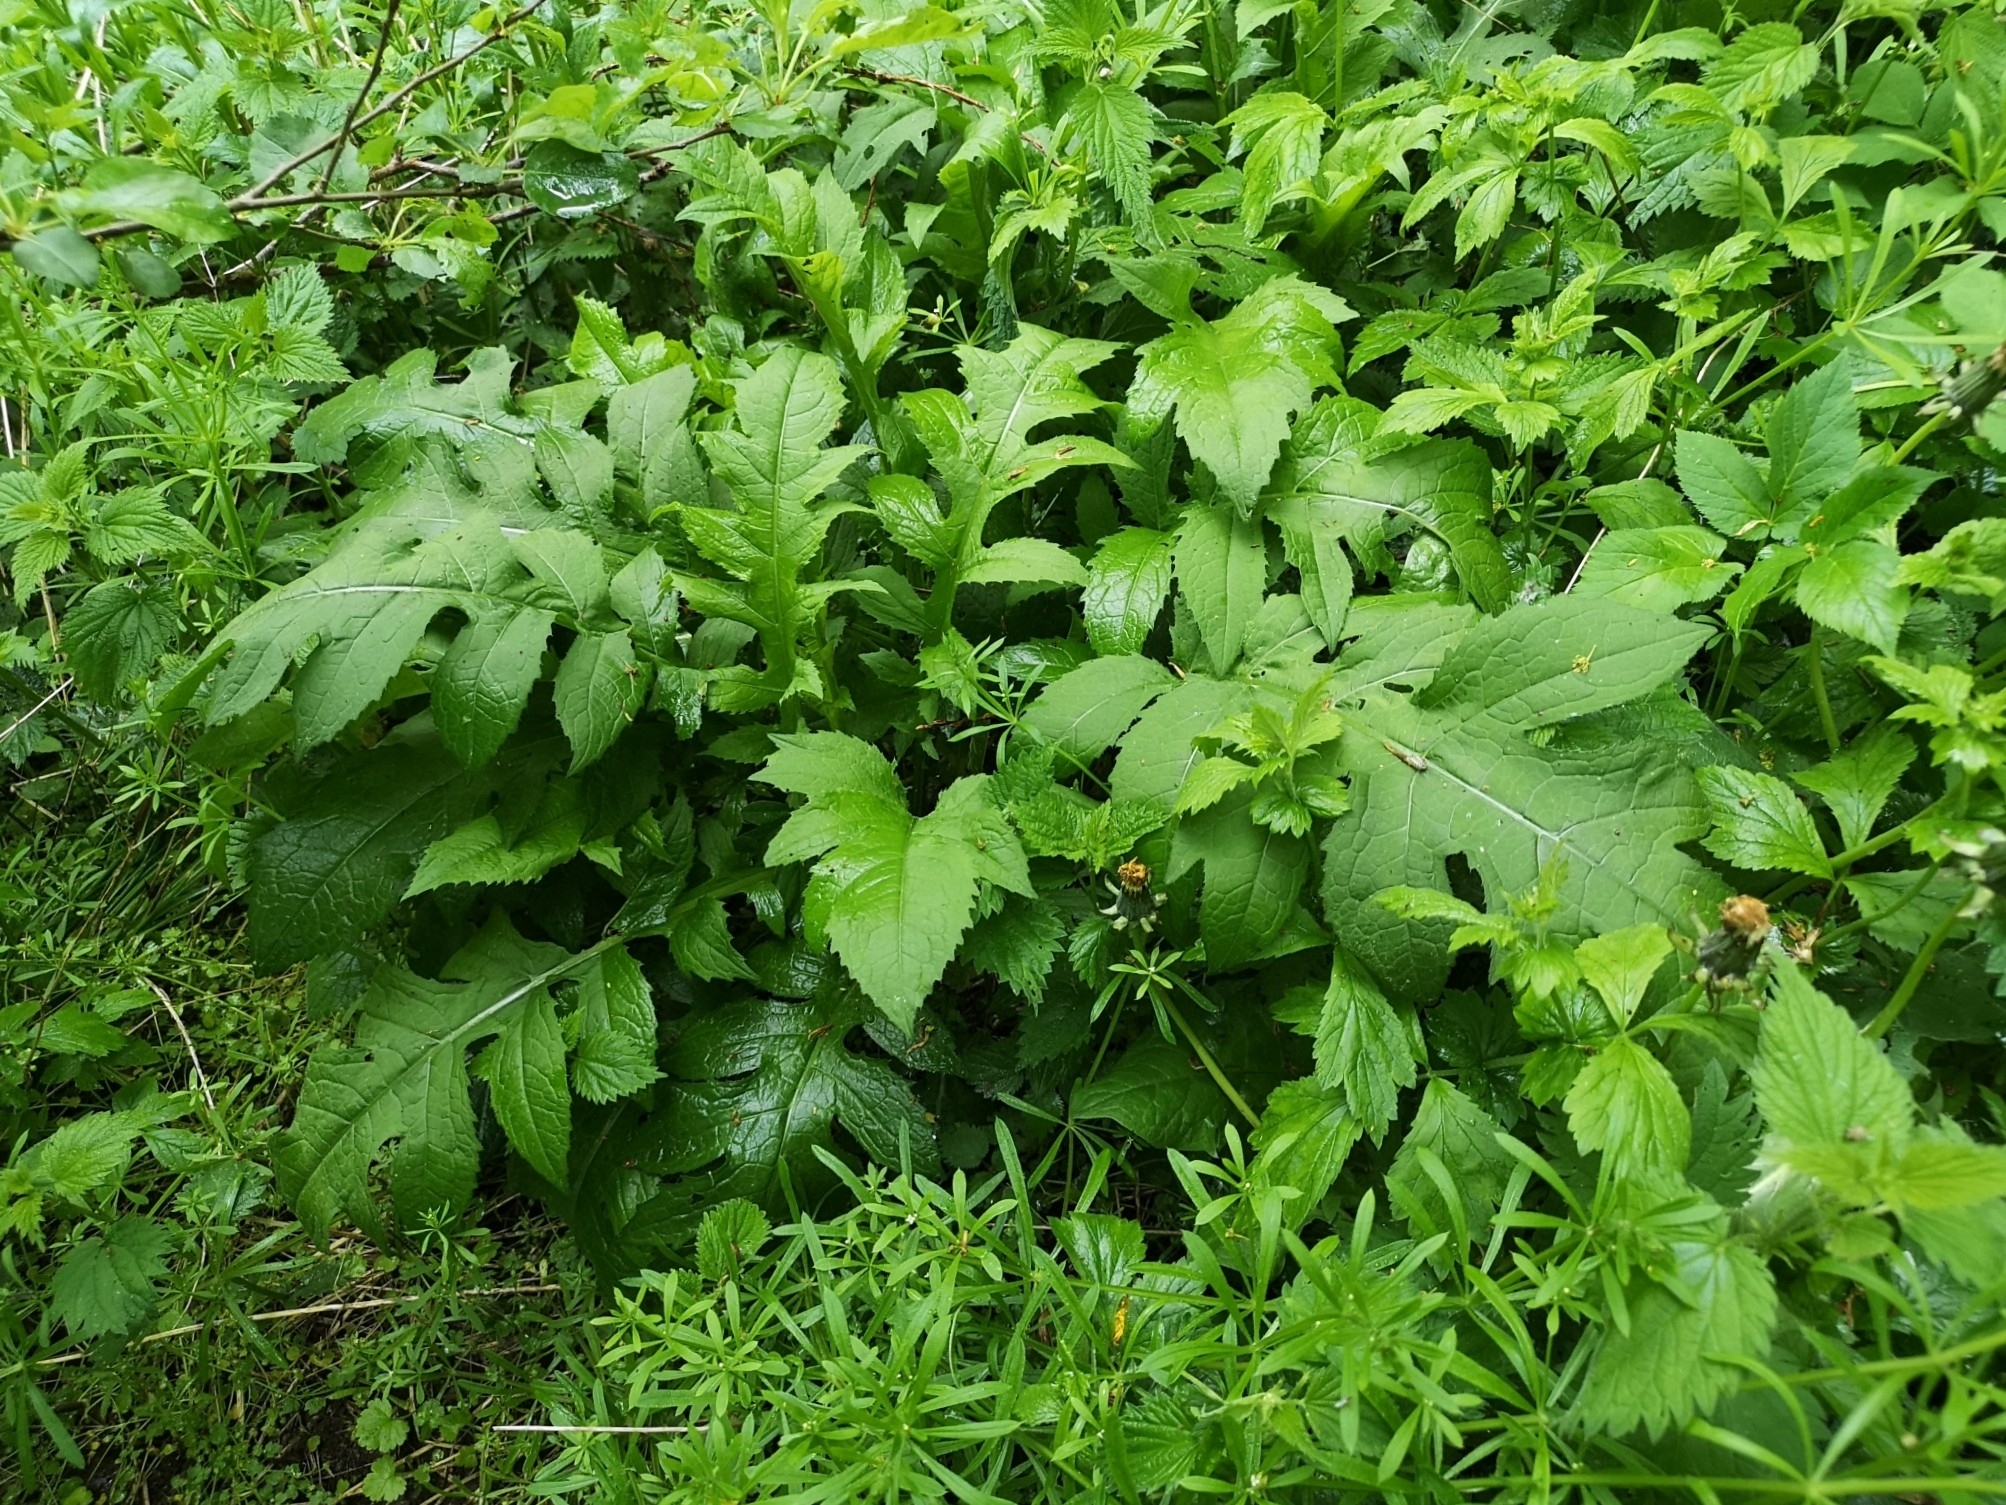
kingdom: Plantae
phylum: Tracheophyta
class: Magnoliopsida
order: Asterales
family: Asteraceae
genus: Cirsium
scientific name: Cirsium oleraceum
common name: Cabbage thistle
